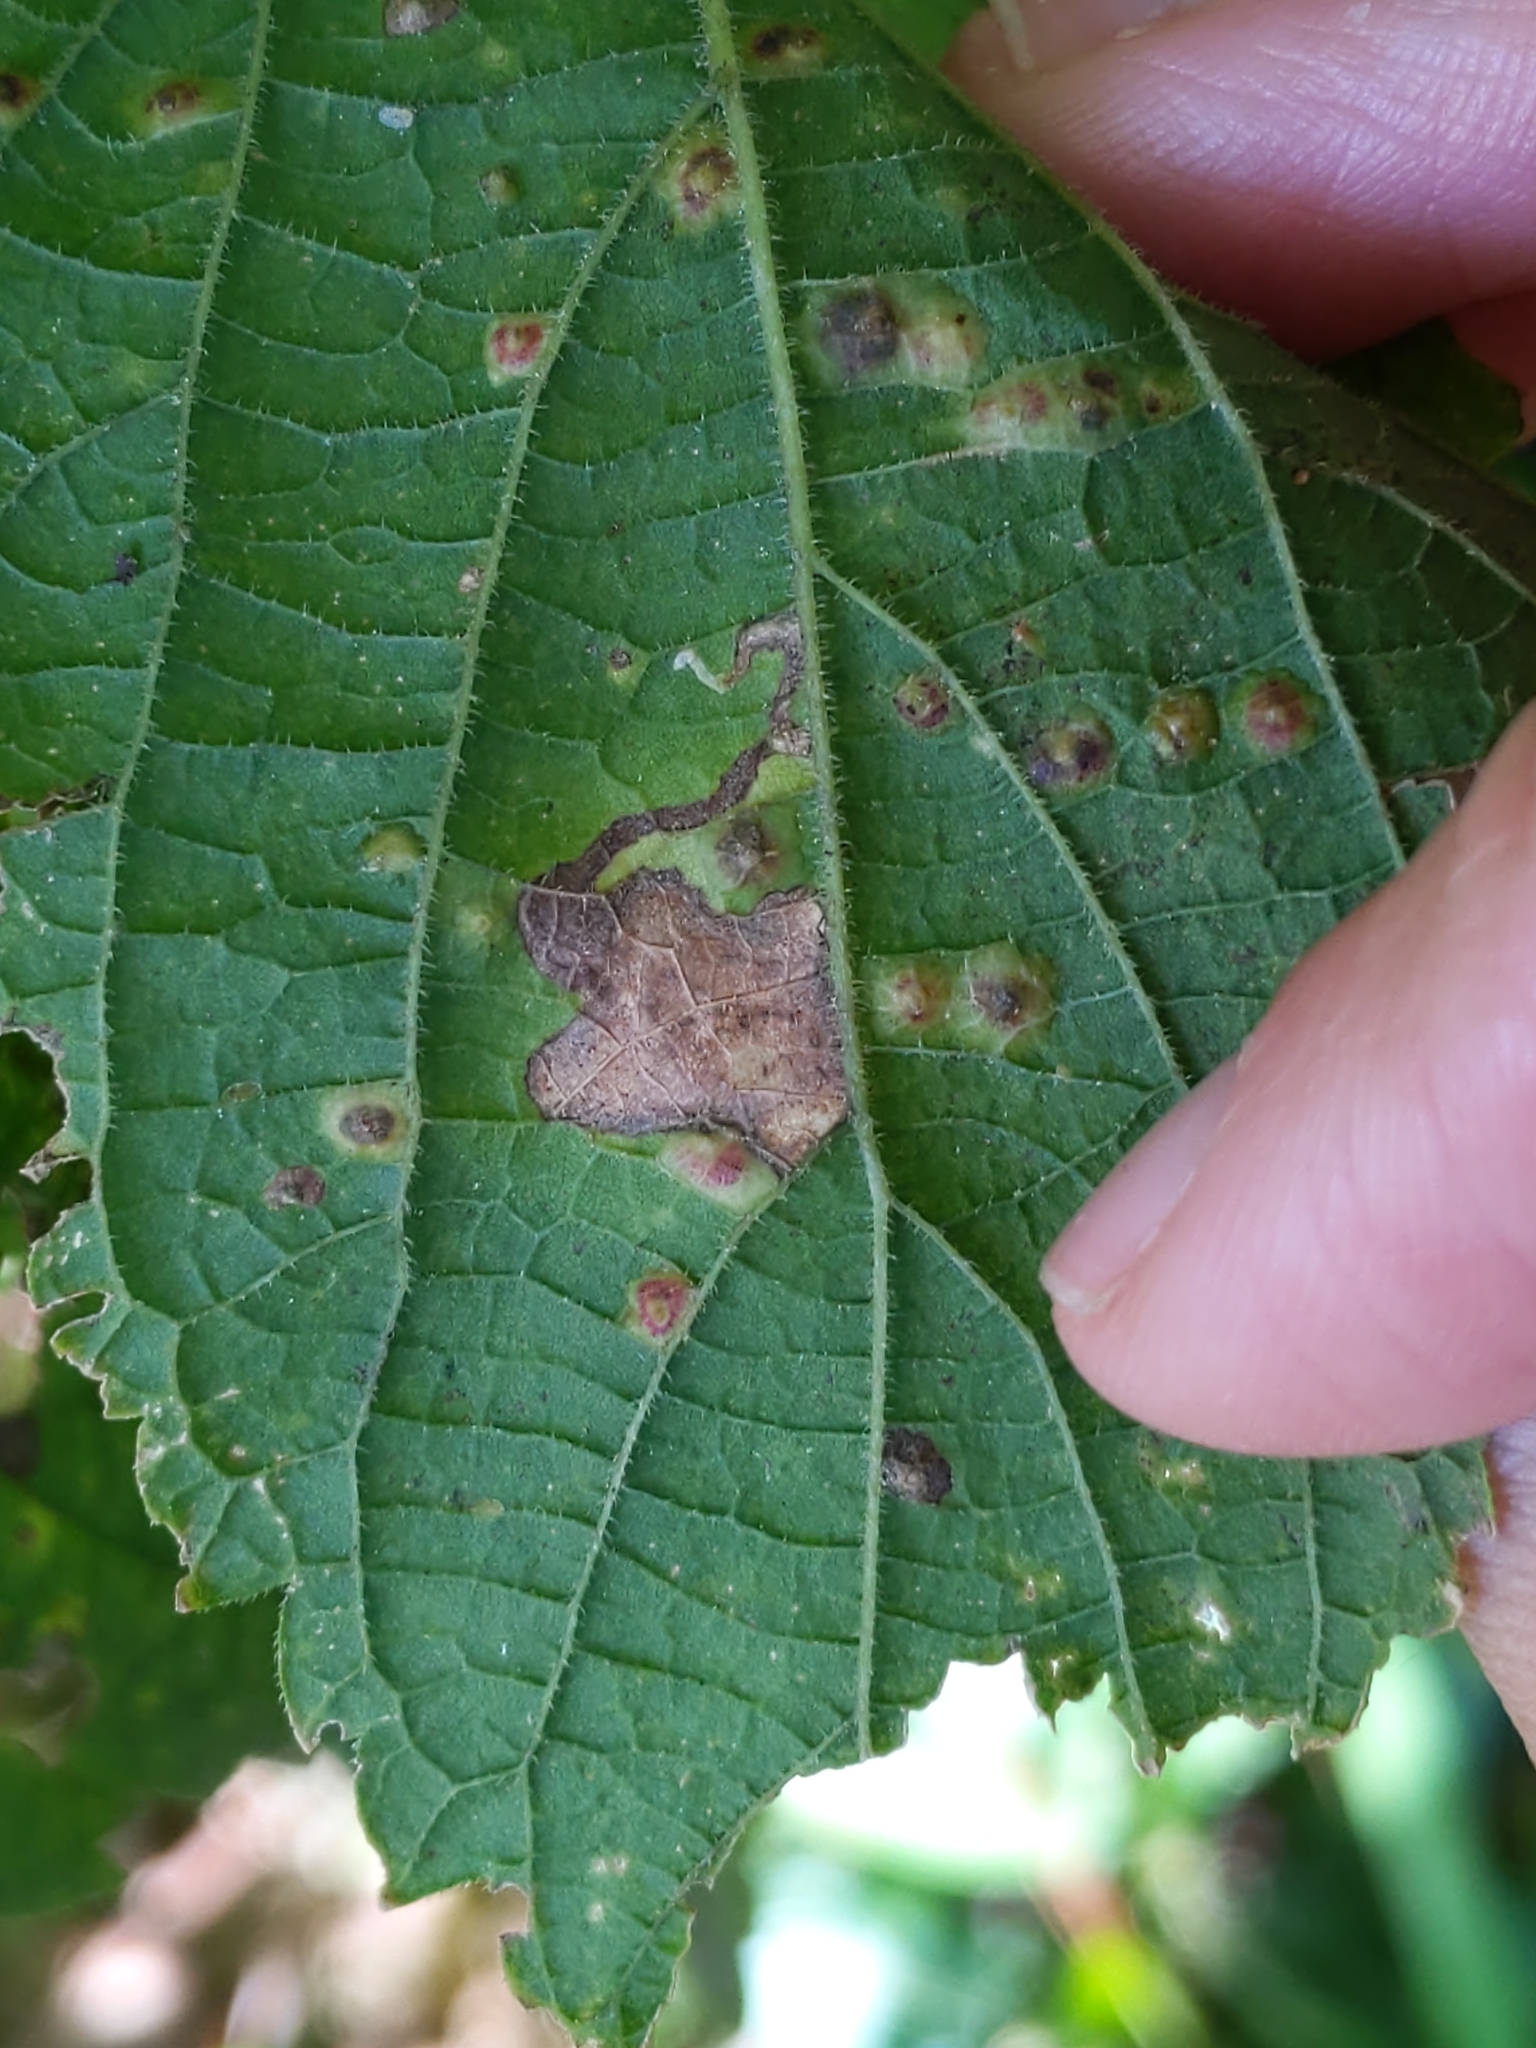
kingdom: Animalia
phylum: Arthropoda
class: Insecta
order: Lepidoptera
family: Gracillariidae
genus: Phyllonorycter
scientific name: Phyllonorycter celtisella
